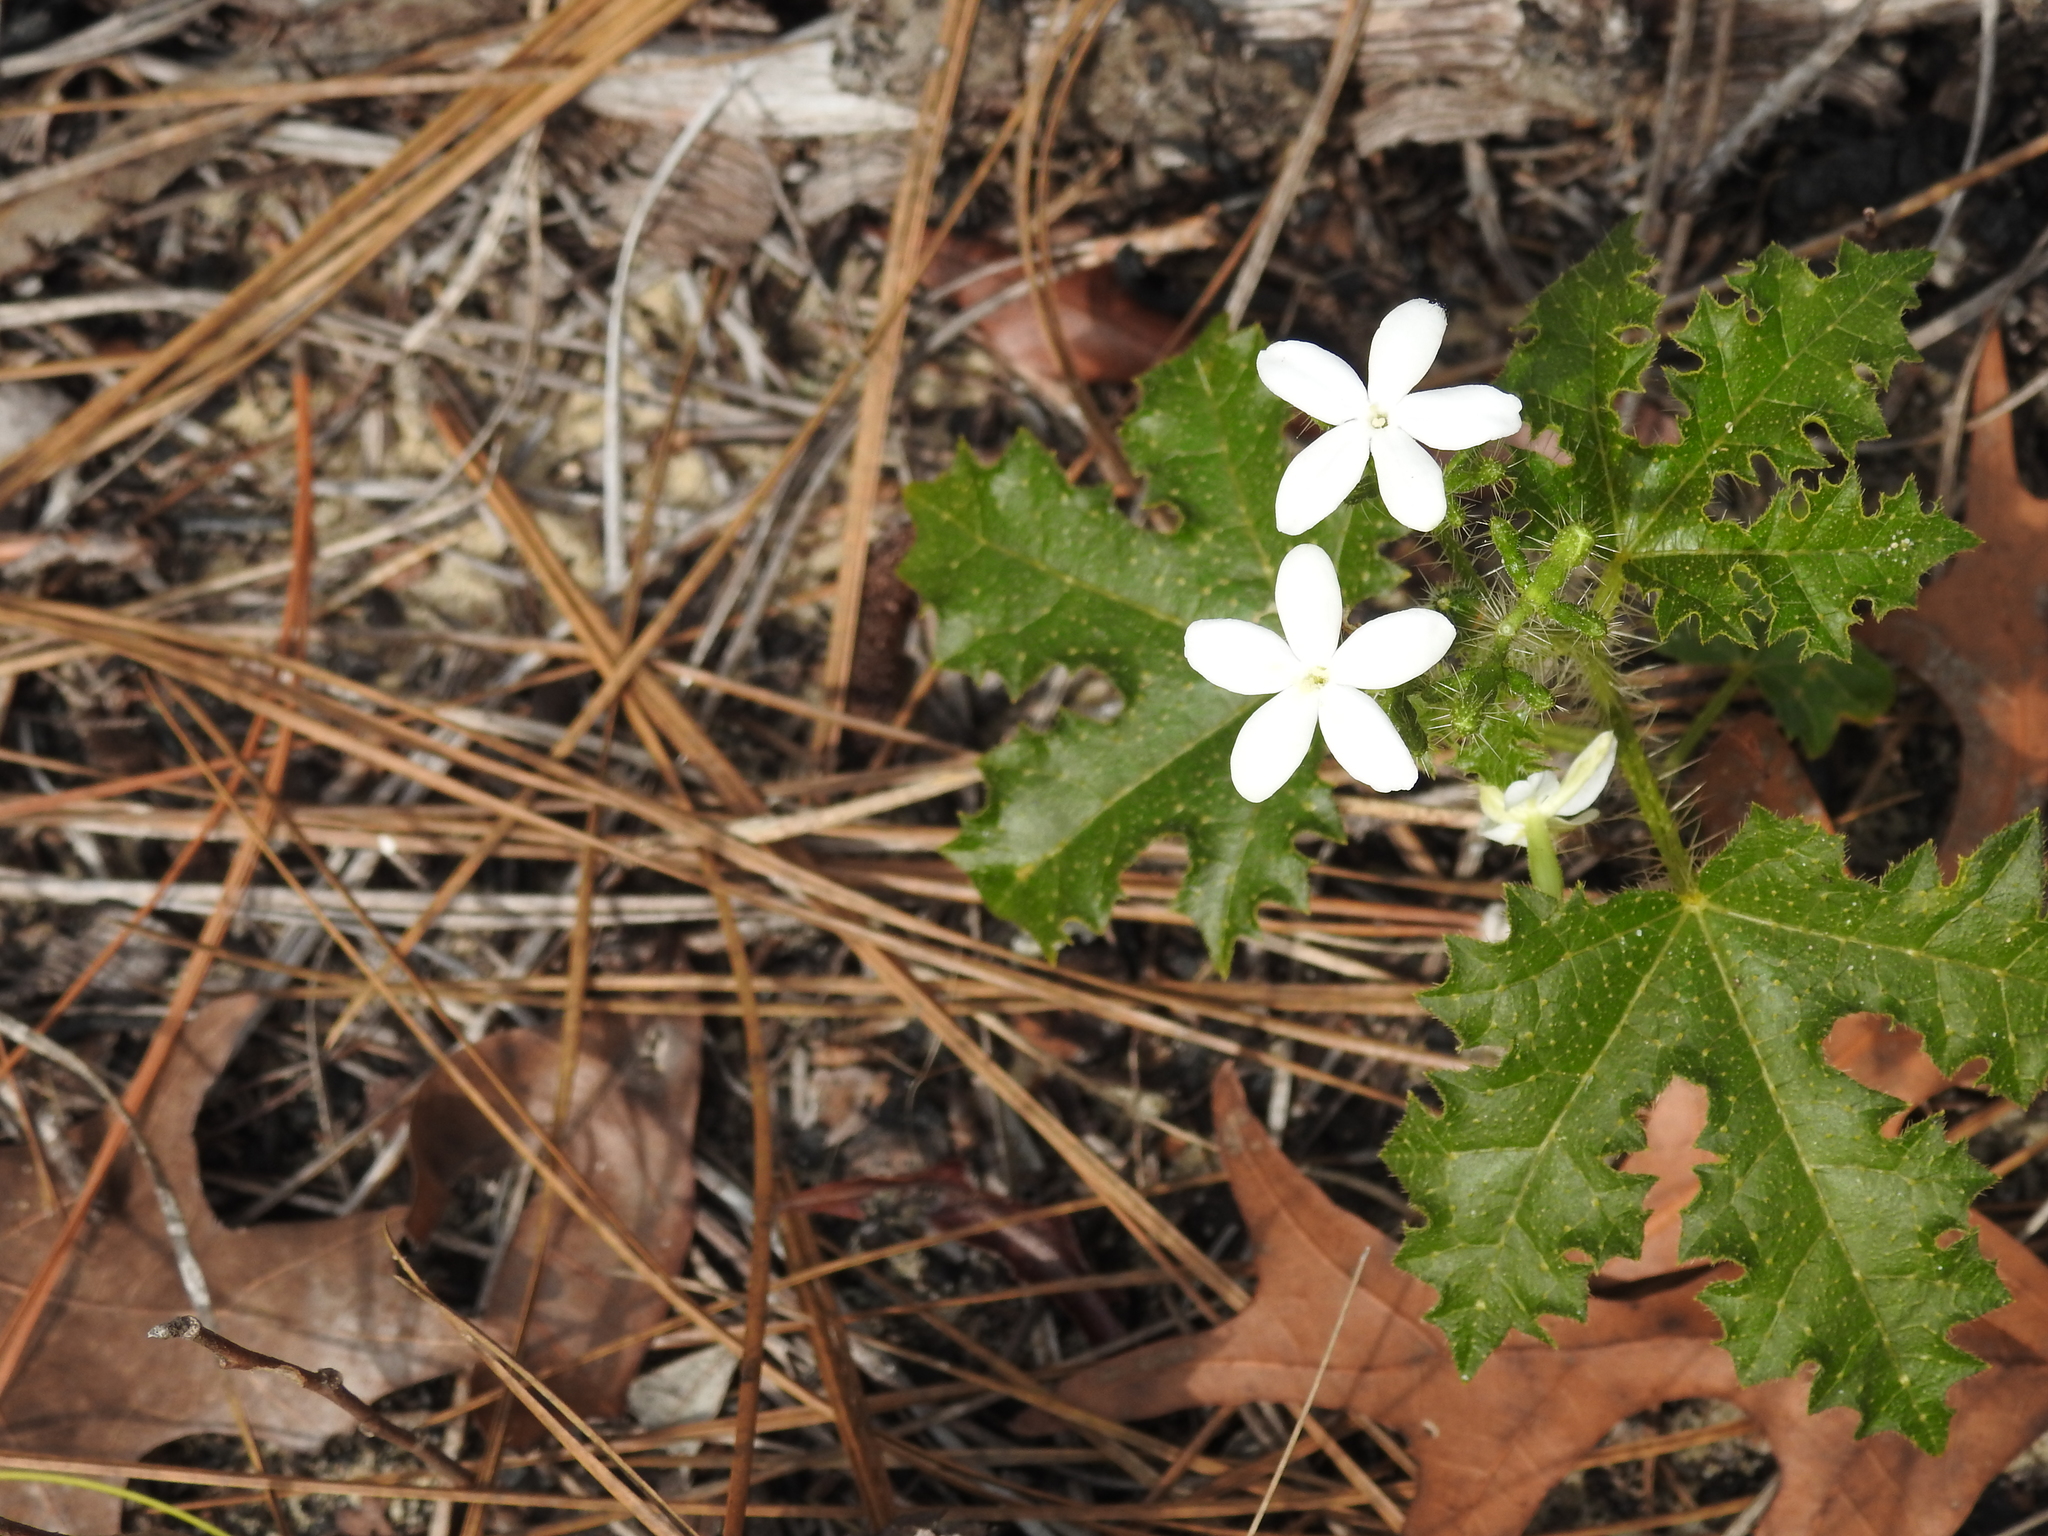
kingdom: Plantae
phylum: Tracheophyta
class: Magnoliopsida
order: Malpighiales
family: Euphorbiaceae
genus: Cnidoscolus
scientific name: Cnidoscolus stimulosus
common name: Bull-nettle
